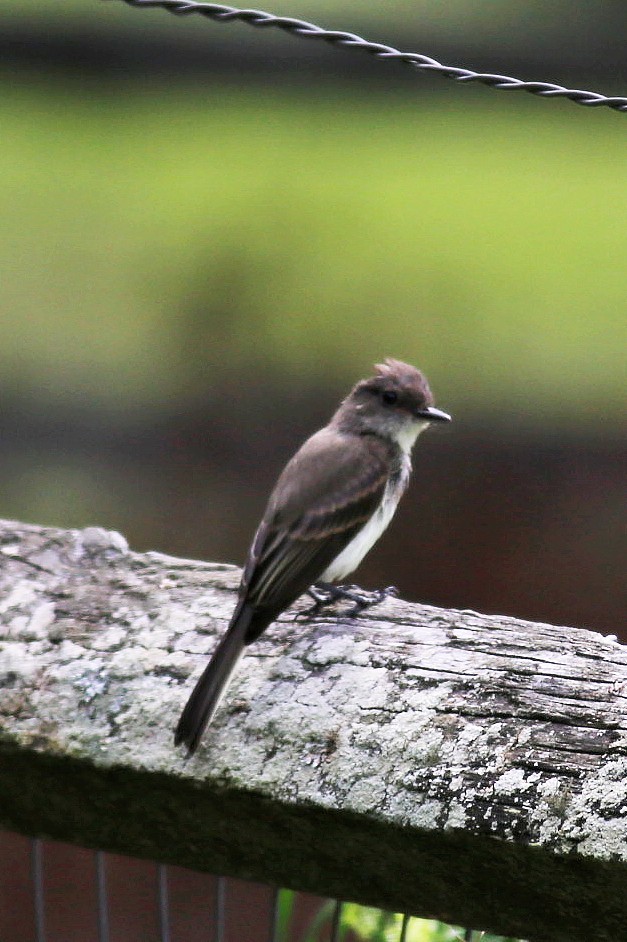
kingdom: Animalia
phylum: Chordata
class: Aves
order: Passeriformes
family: Tyrannidae
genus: Sayornis
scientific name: Sayornis phoebe
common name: Eastern phoebe
